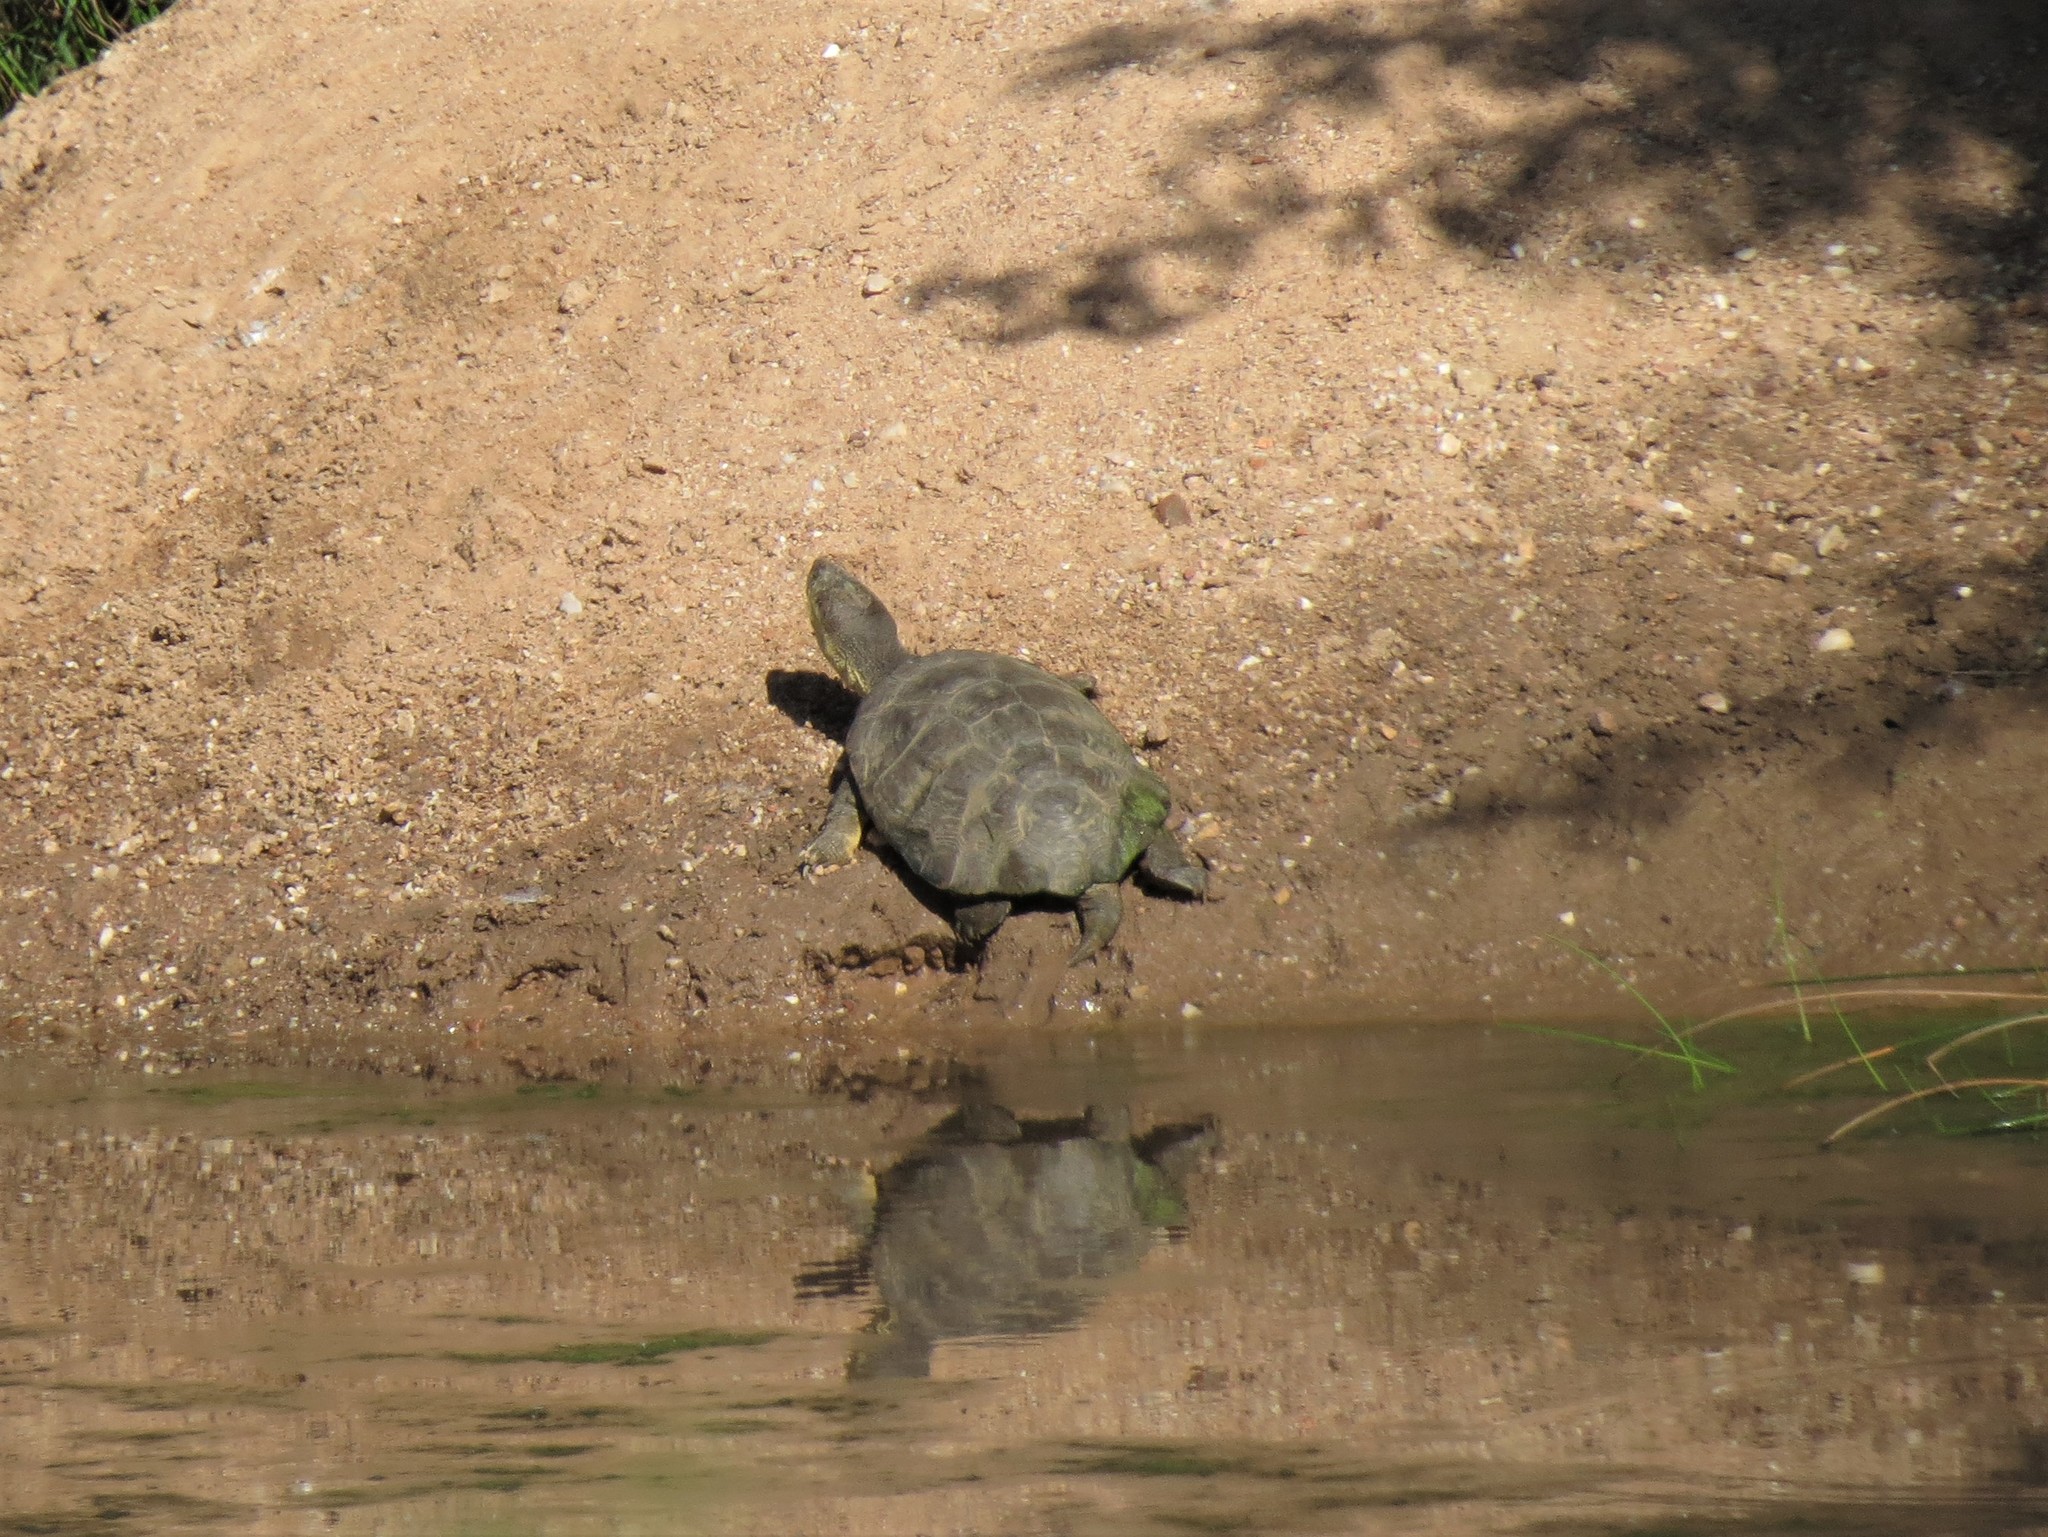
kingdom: Animalia
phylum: Chordata
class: Testudines
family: Pelomedusidae
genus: Pelomedusa
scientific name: Pelomedusa galeata
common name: South african helmeted terrapin
